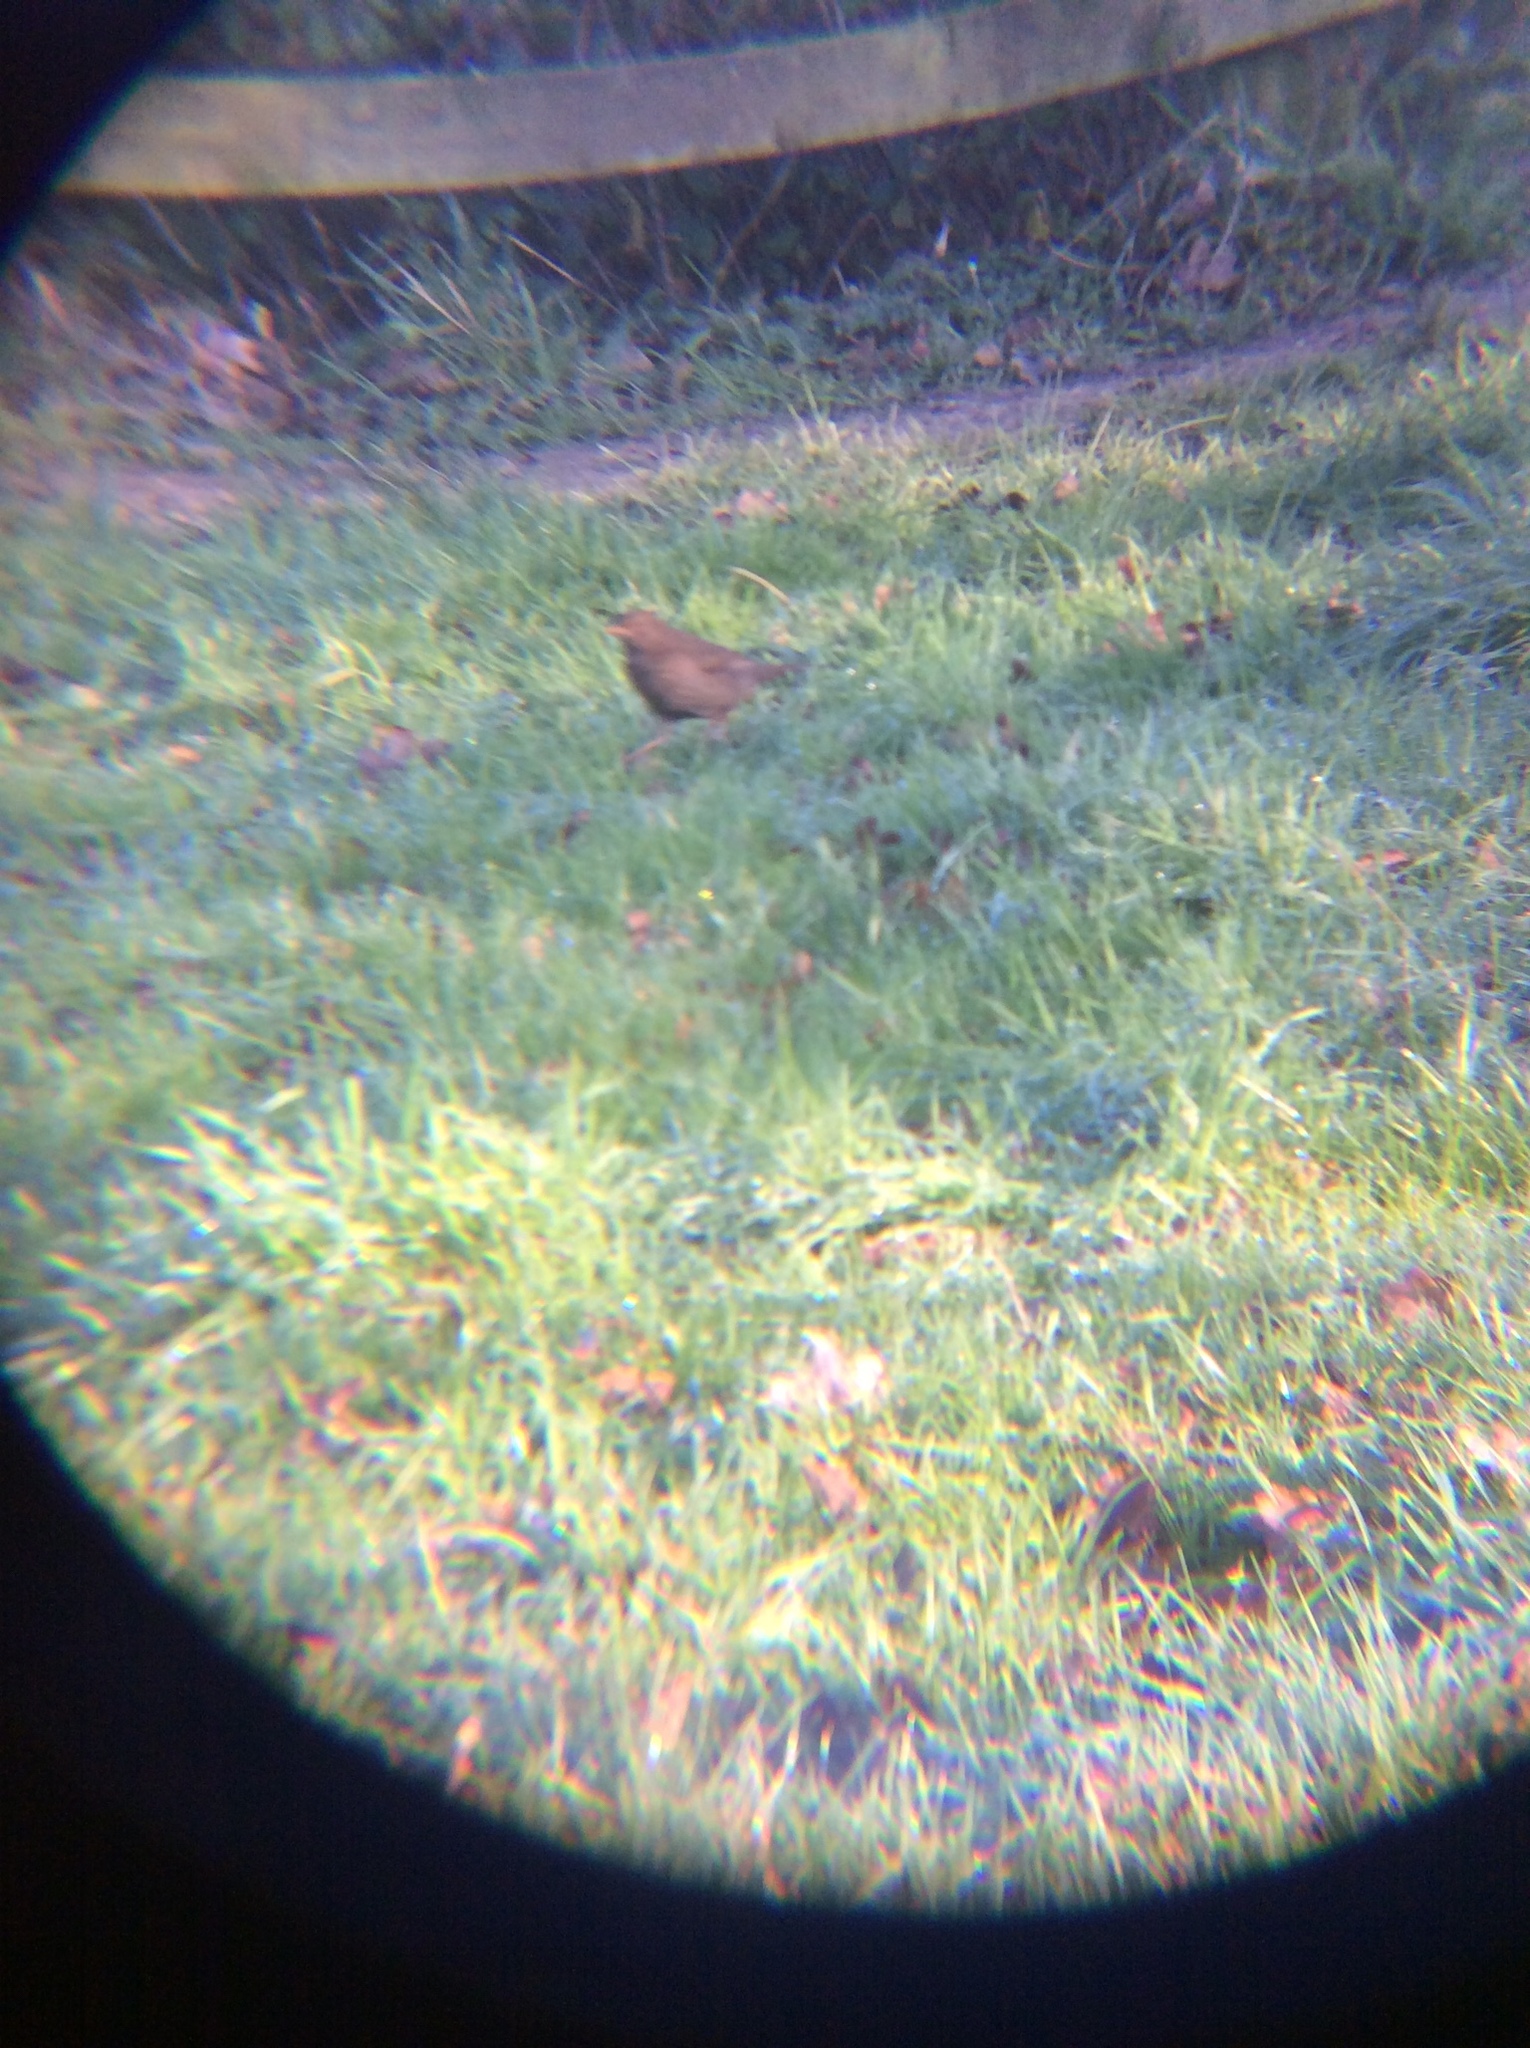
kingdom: Animalia
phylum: Chordata
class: Aves
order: Passeriformes
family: Turdidae
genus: Turdus
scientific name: Turdus merula
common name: Common blackbird
